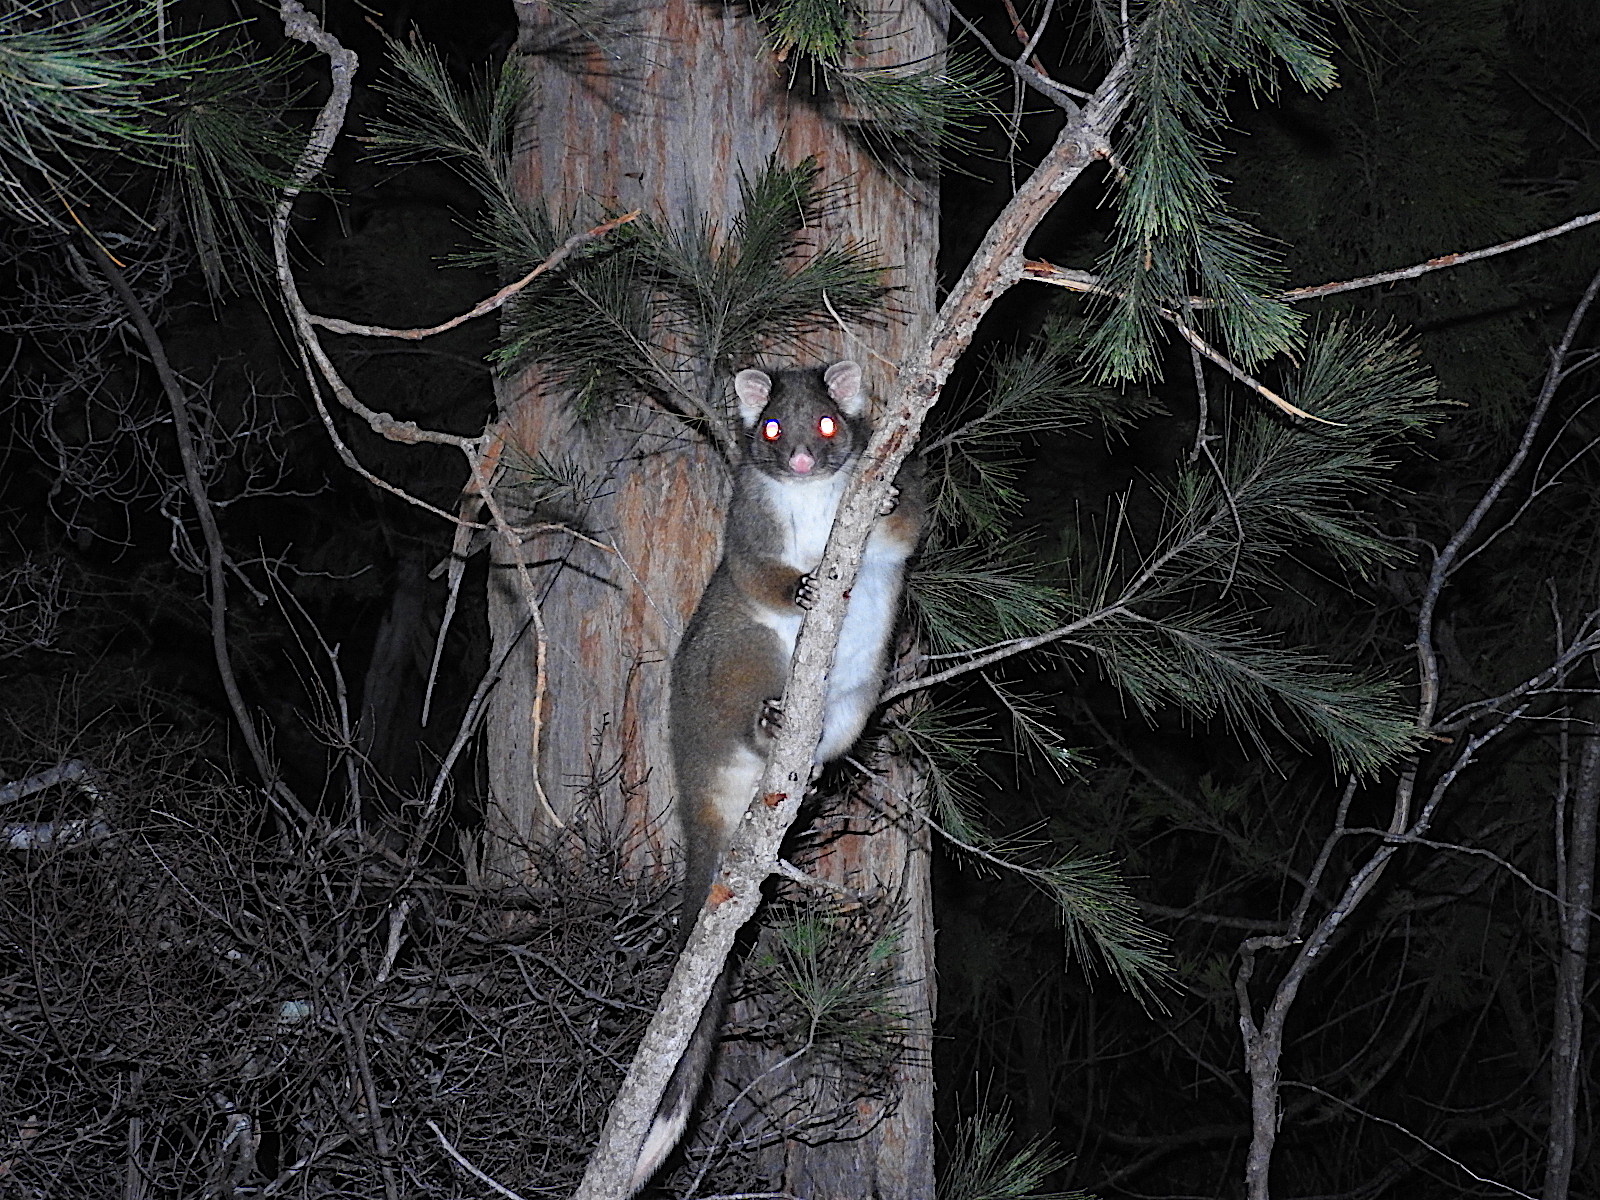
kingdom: Animalia
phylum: Chordata
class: Mammalia
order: Diprotodontia
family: Pseudocheiridae
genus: Pseudocheirus
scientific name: Pseudocheirus peregrinus
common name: Common ringtail possum
